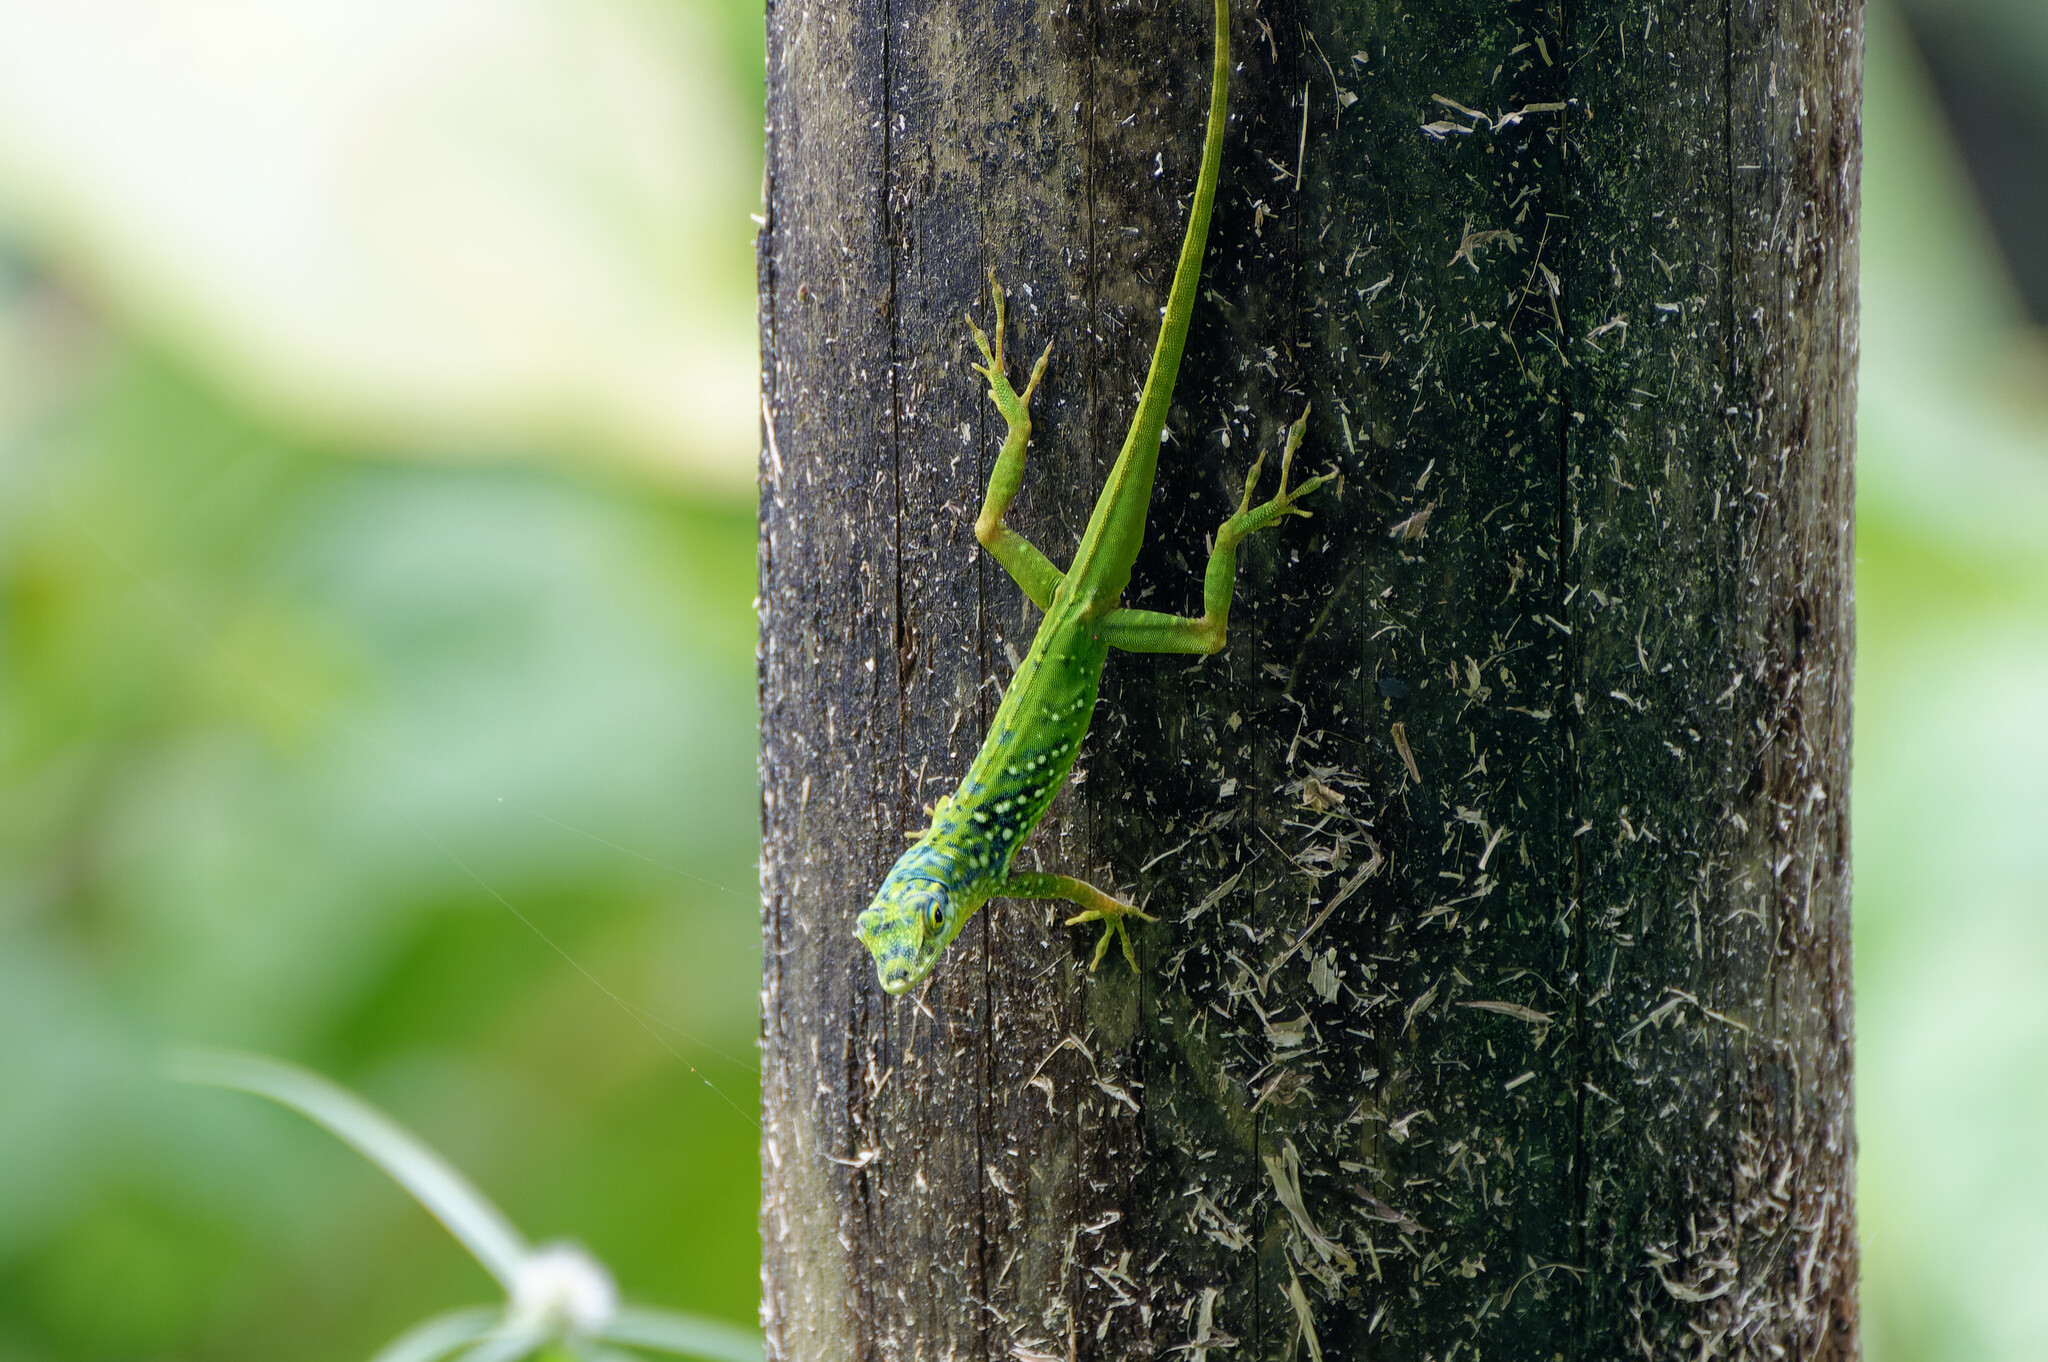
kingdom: Animalia
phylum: Chordata
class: Squamata
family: Dactyloidae
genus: Anolis
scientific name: Anolis roquet
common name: Martinique anole
